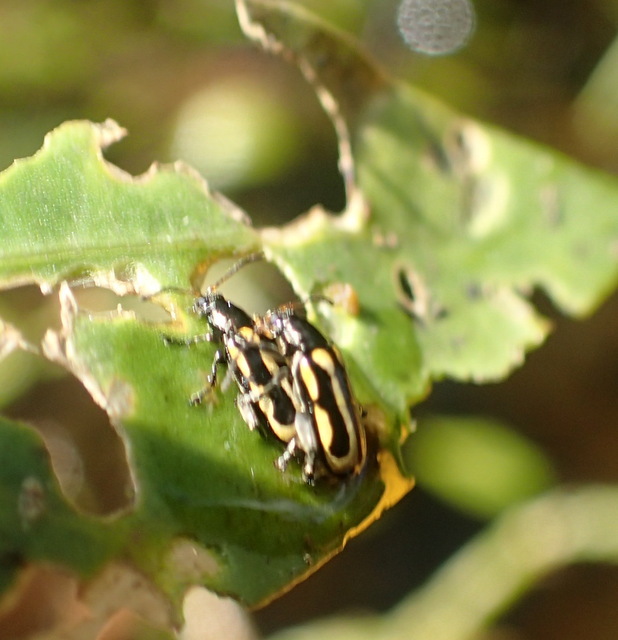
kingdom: Animalia
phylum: Arthropoda
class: Insecta
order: Coleoptera
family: Chrysomelidae
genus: Agasicles
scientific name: Agasicles hygrophila
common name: Alligatorweed flea beetle
